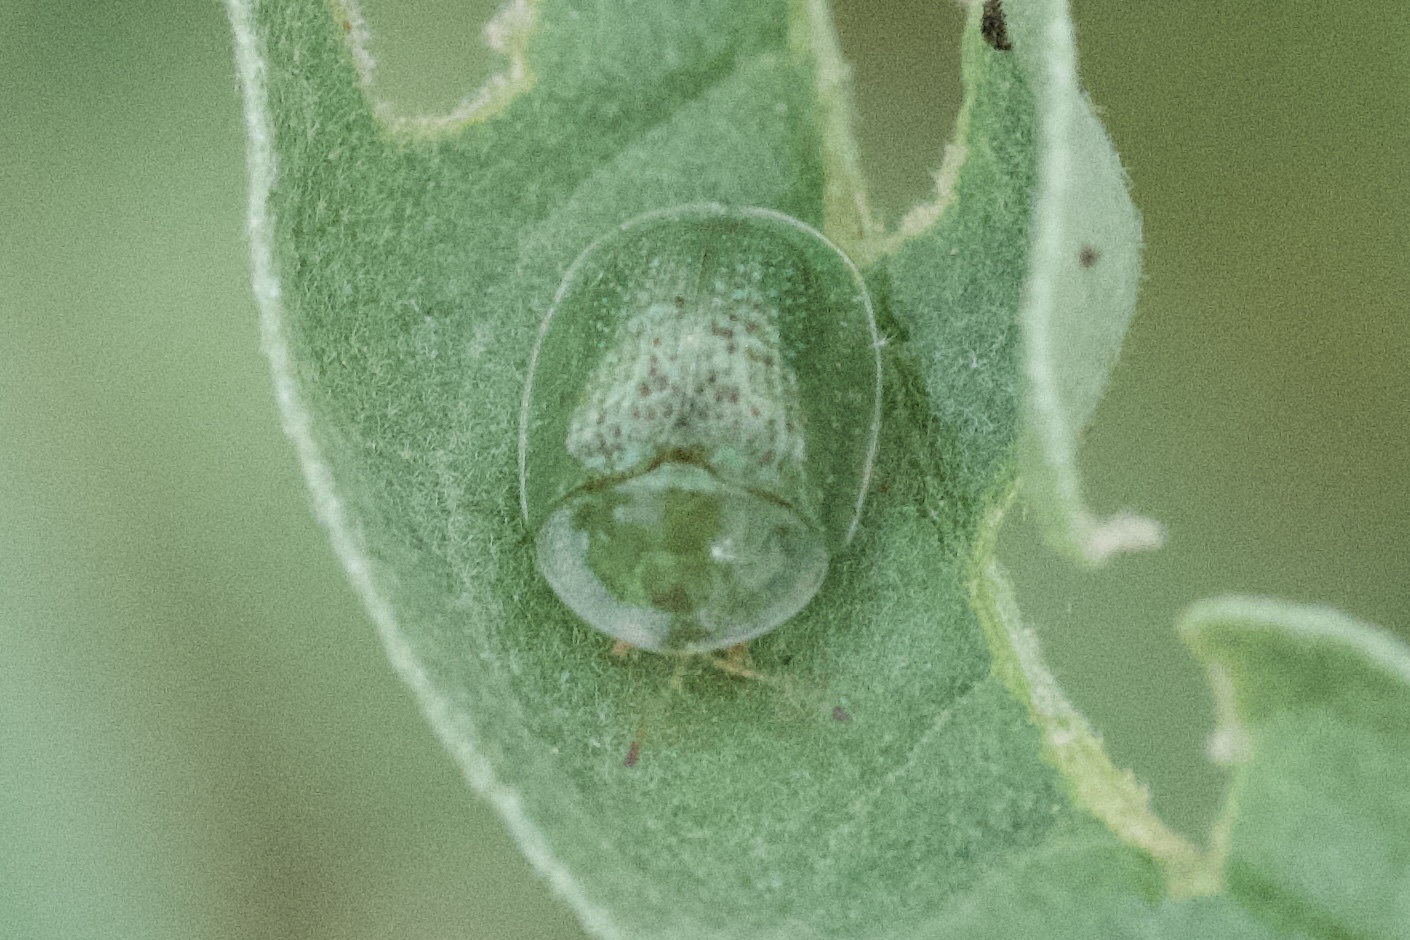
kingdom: Animalia
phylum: Arthropoda
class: Insecta
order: Coleoptera
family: Chrysomelidae
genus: Gratiana
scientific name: Gratiana pallidula
